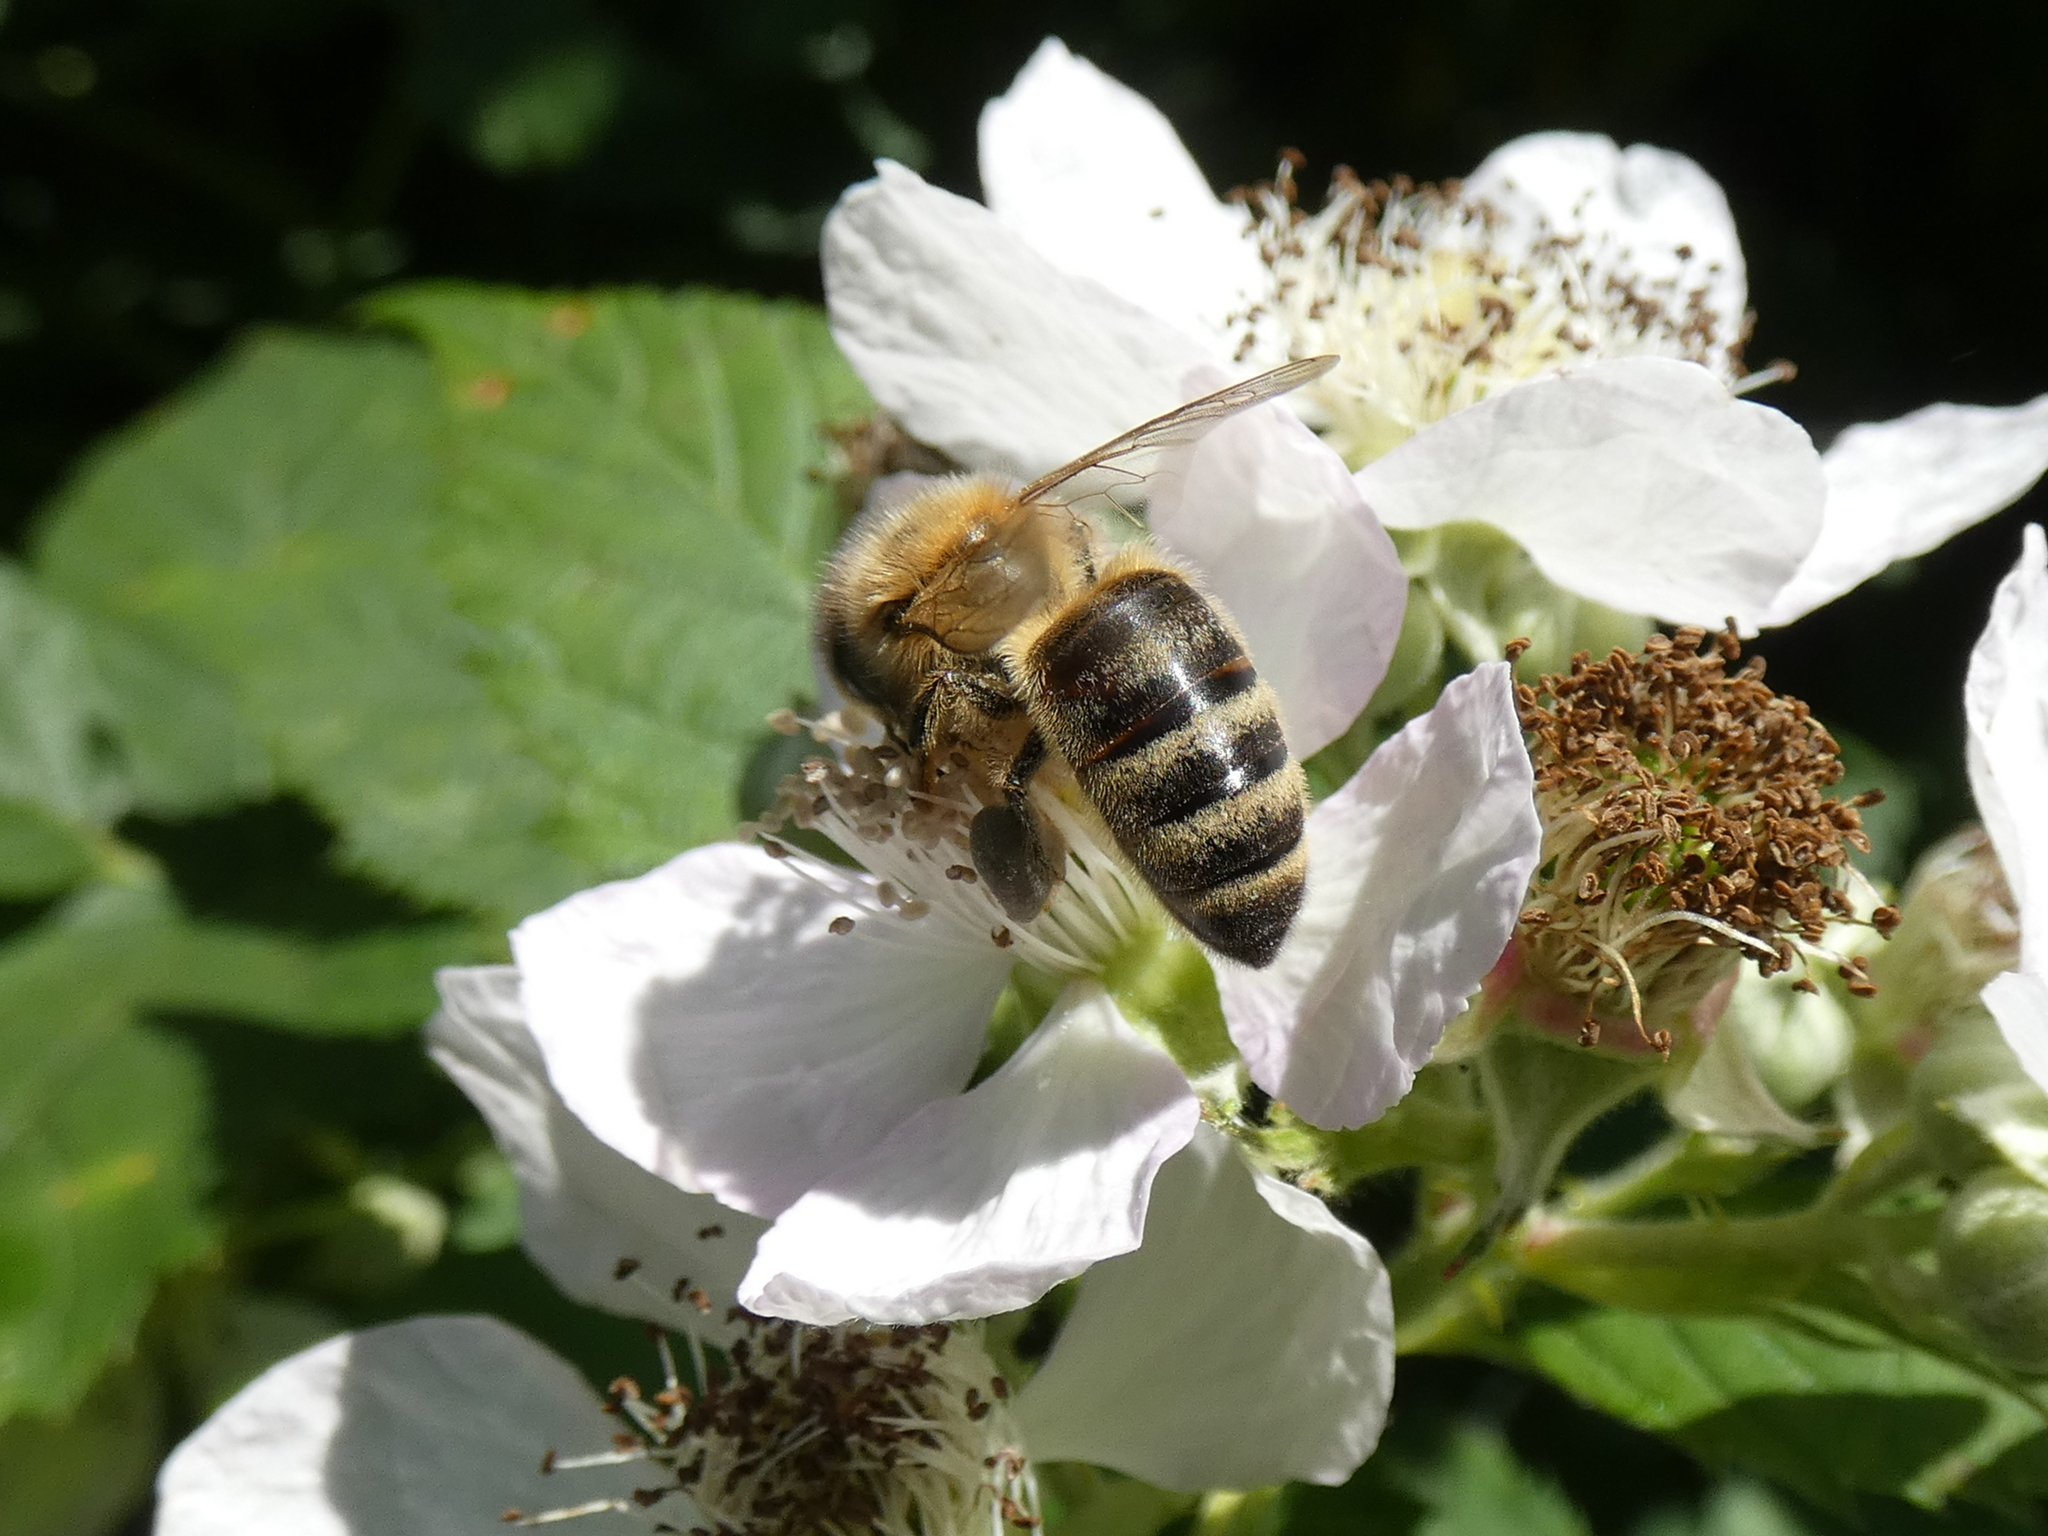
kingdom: Animalia
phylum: Arthropoda
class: Insecta
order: Hymenoptera
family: Apidae
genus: Apis
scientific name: Apis mellifera
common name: Honey bee
